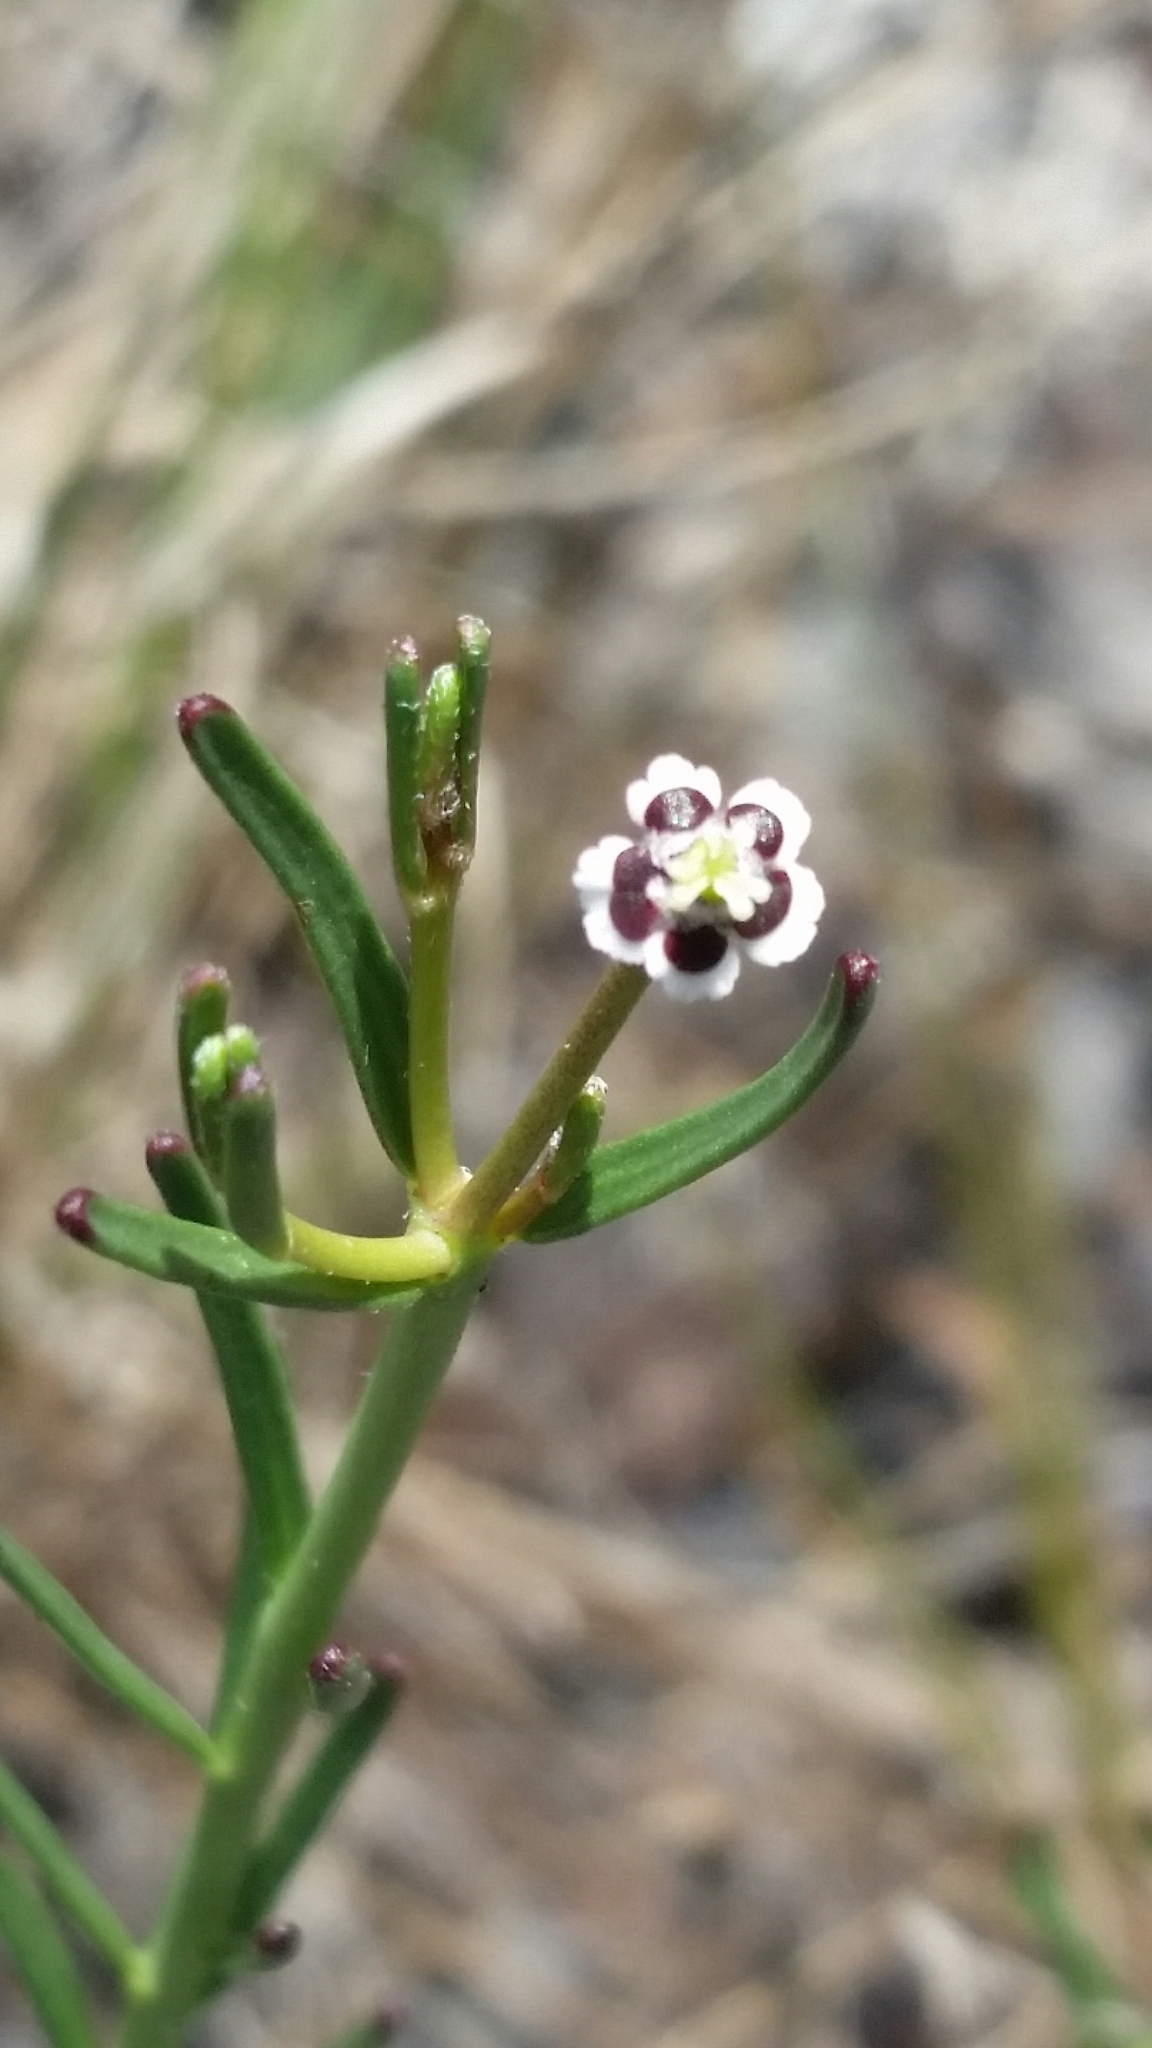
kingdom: Plantae
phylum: Tracheophyta
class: Magnoliopsida
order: Malpighiales
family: Euphorbiaceae
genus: Euphorbia
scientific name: Euphorbia polyphylla
